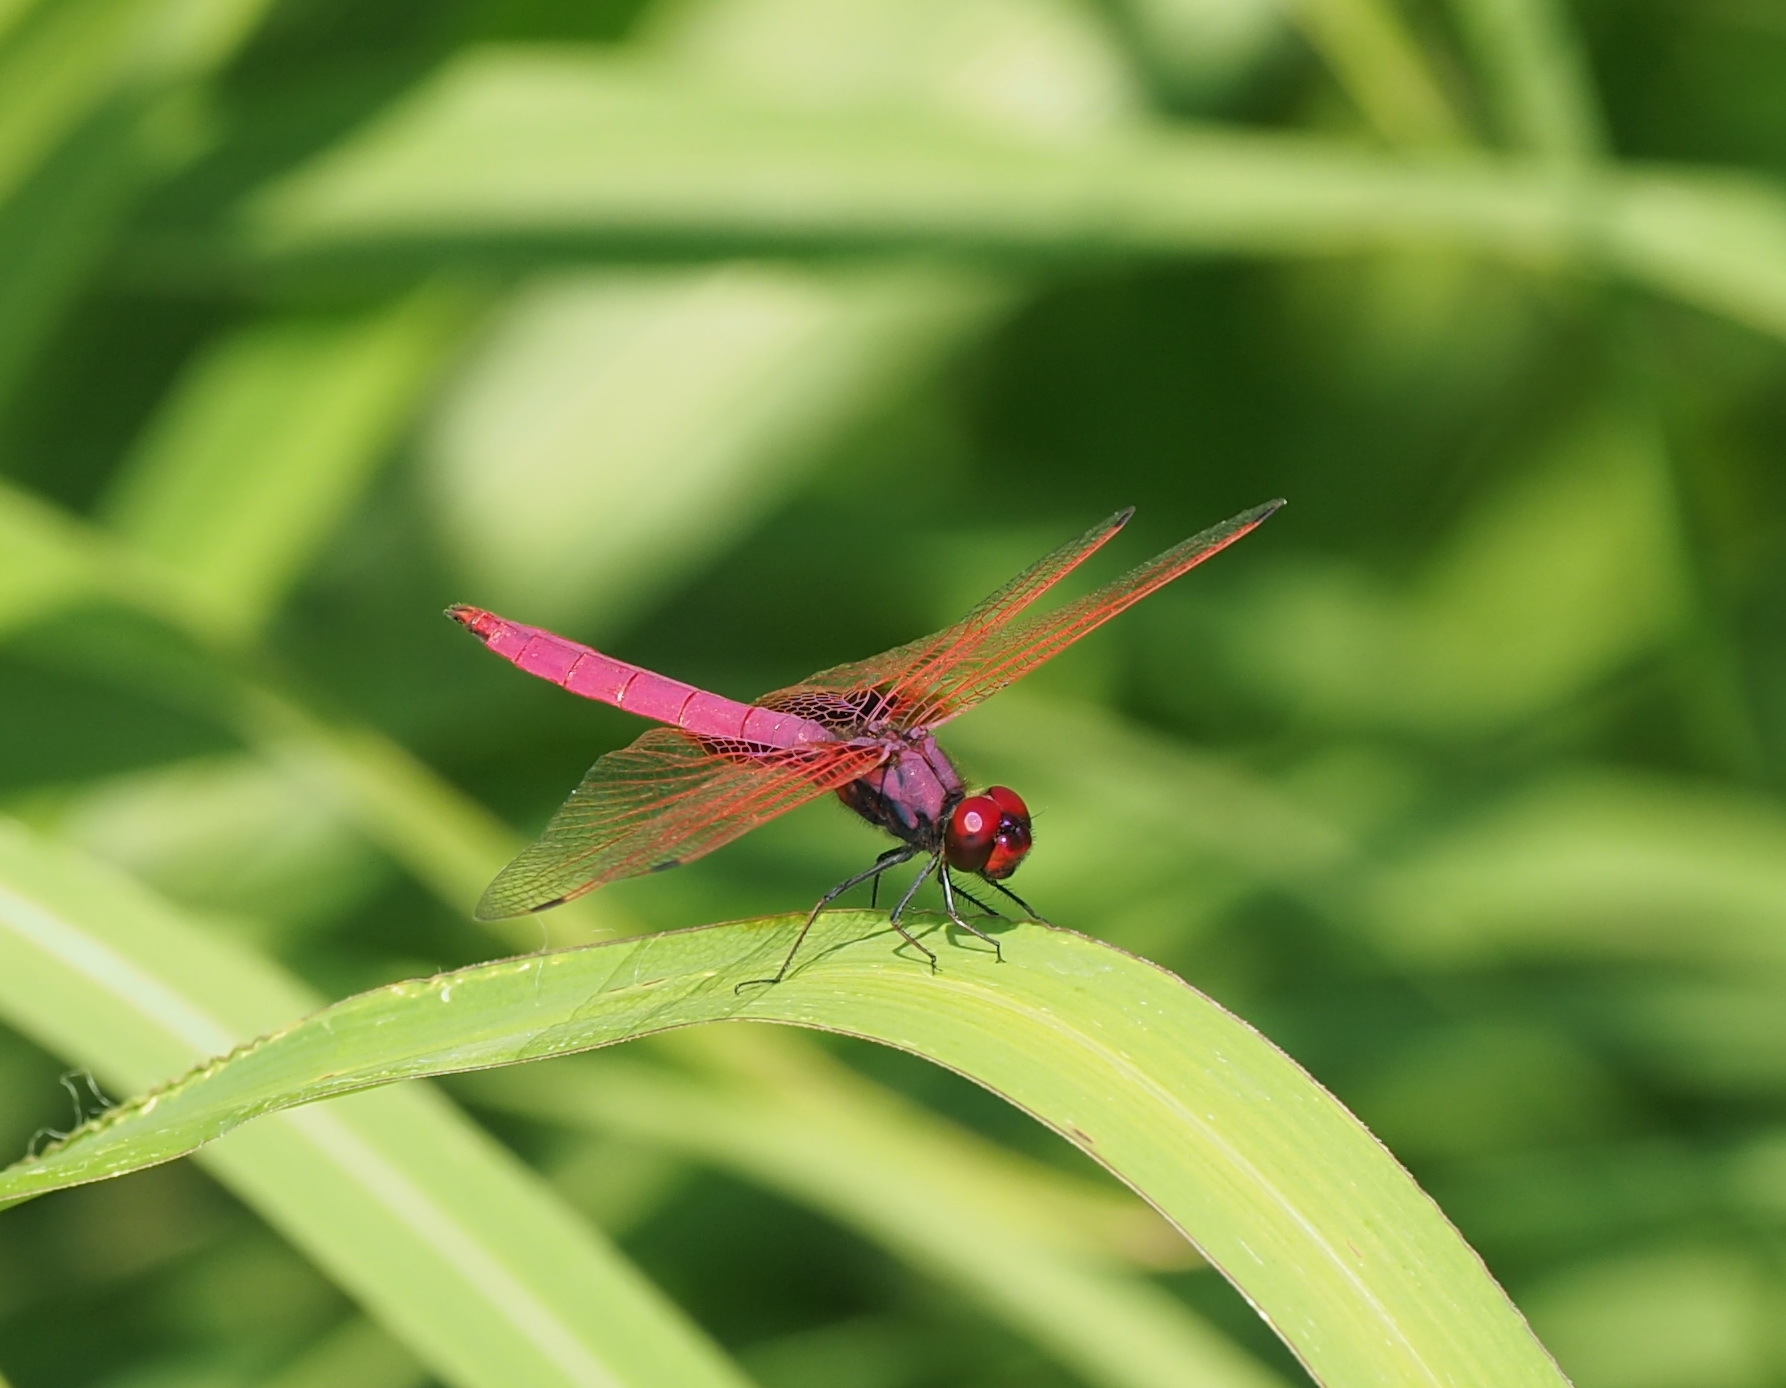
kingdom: Animalia
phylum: Arthropoda
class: Insecta
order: Odonata
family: Libellulidae
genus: Trithemis
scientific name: Trithemis aurora
